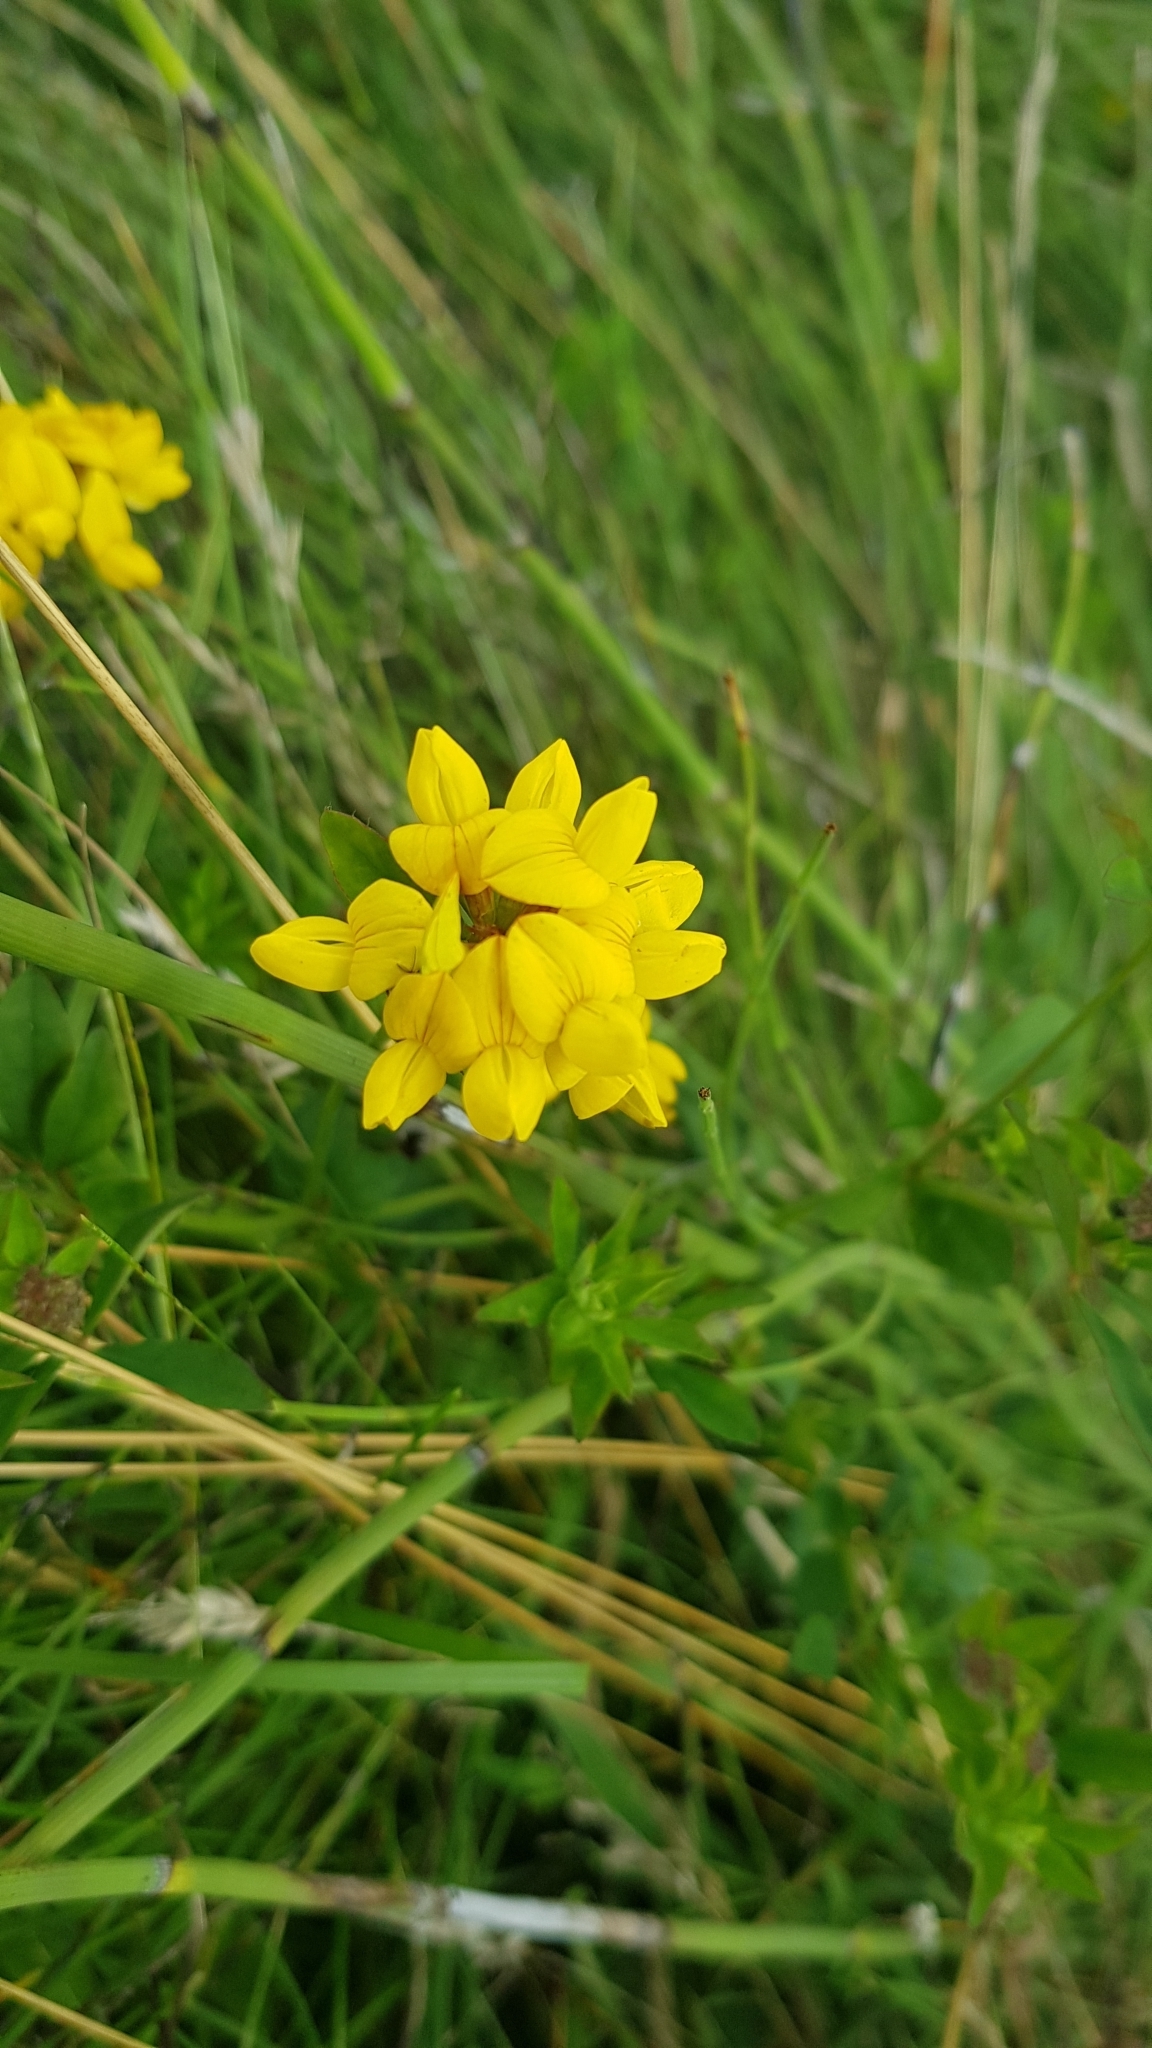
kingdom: Plantae
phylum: Tracheophyta
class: Magnoliopsida
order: Fabales
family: Fabaceae
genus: Lotus
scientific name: Lotus pedunculatus
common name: Greater birdsfoot-trefoil
